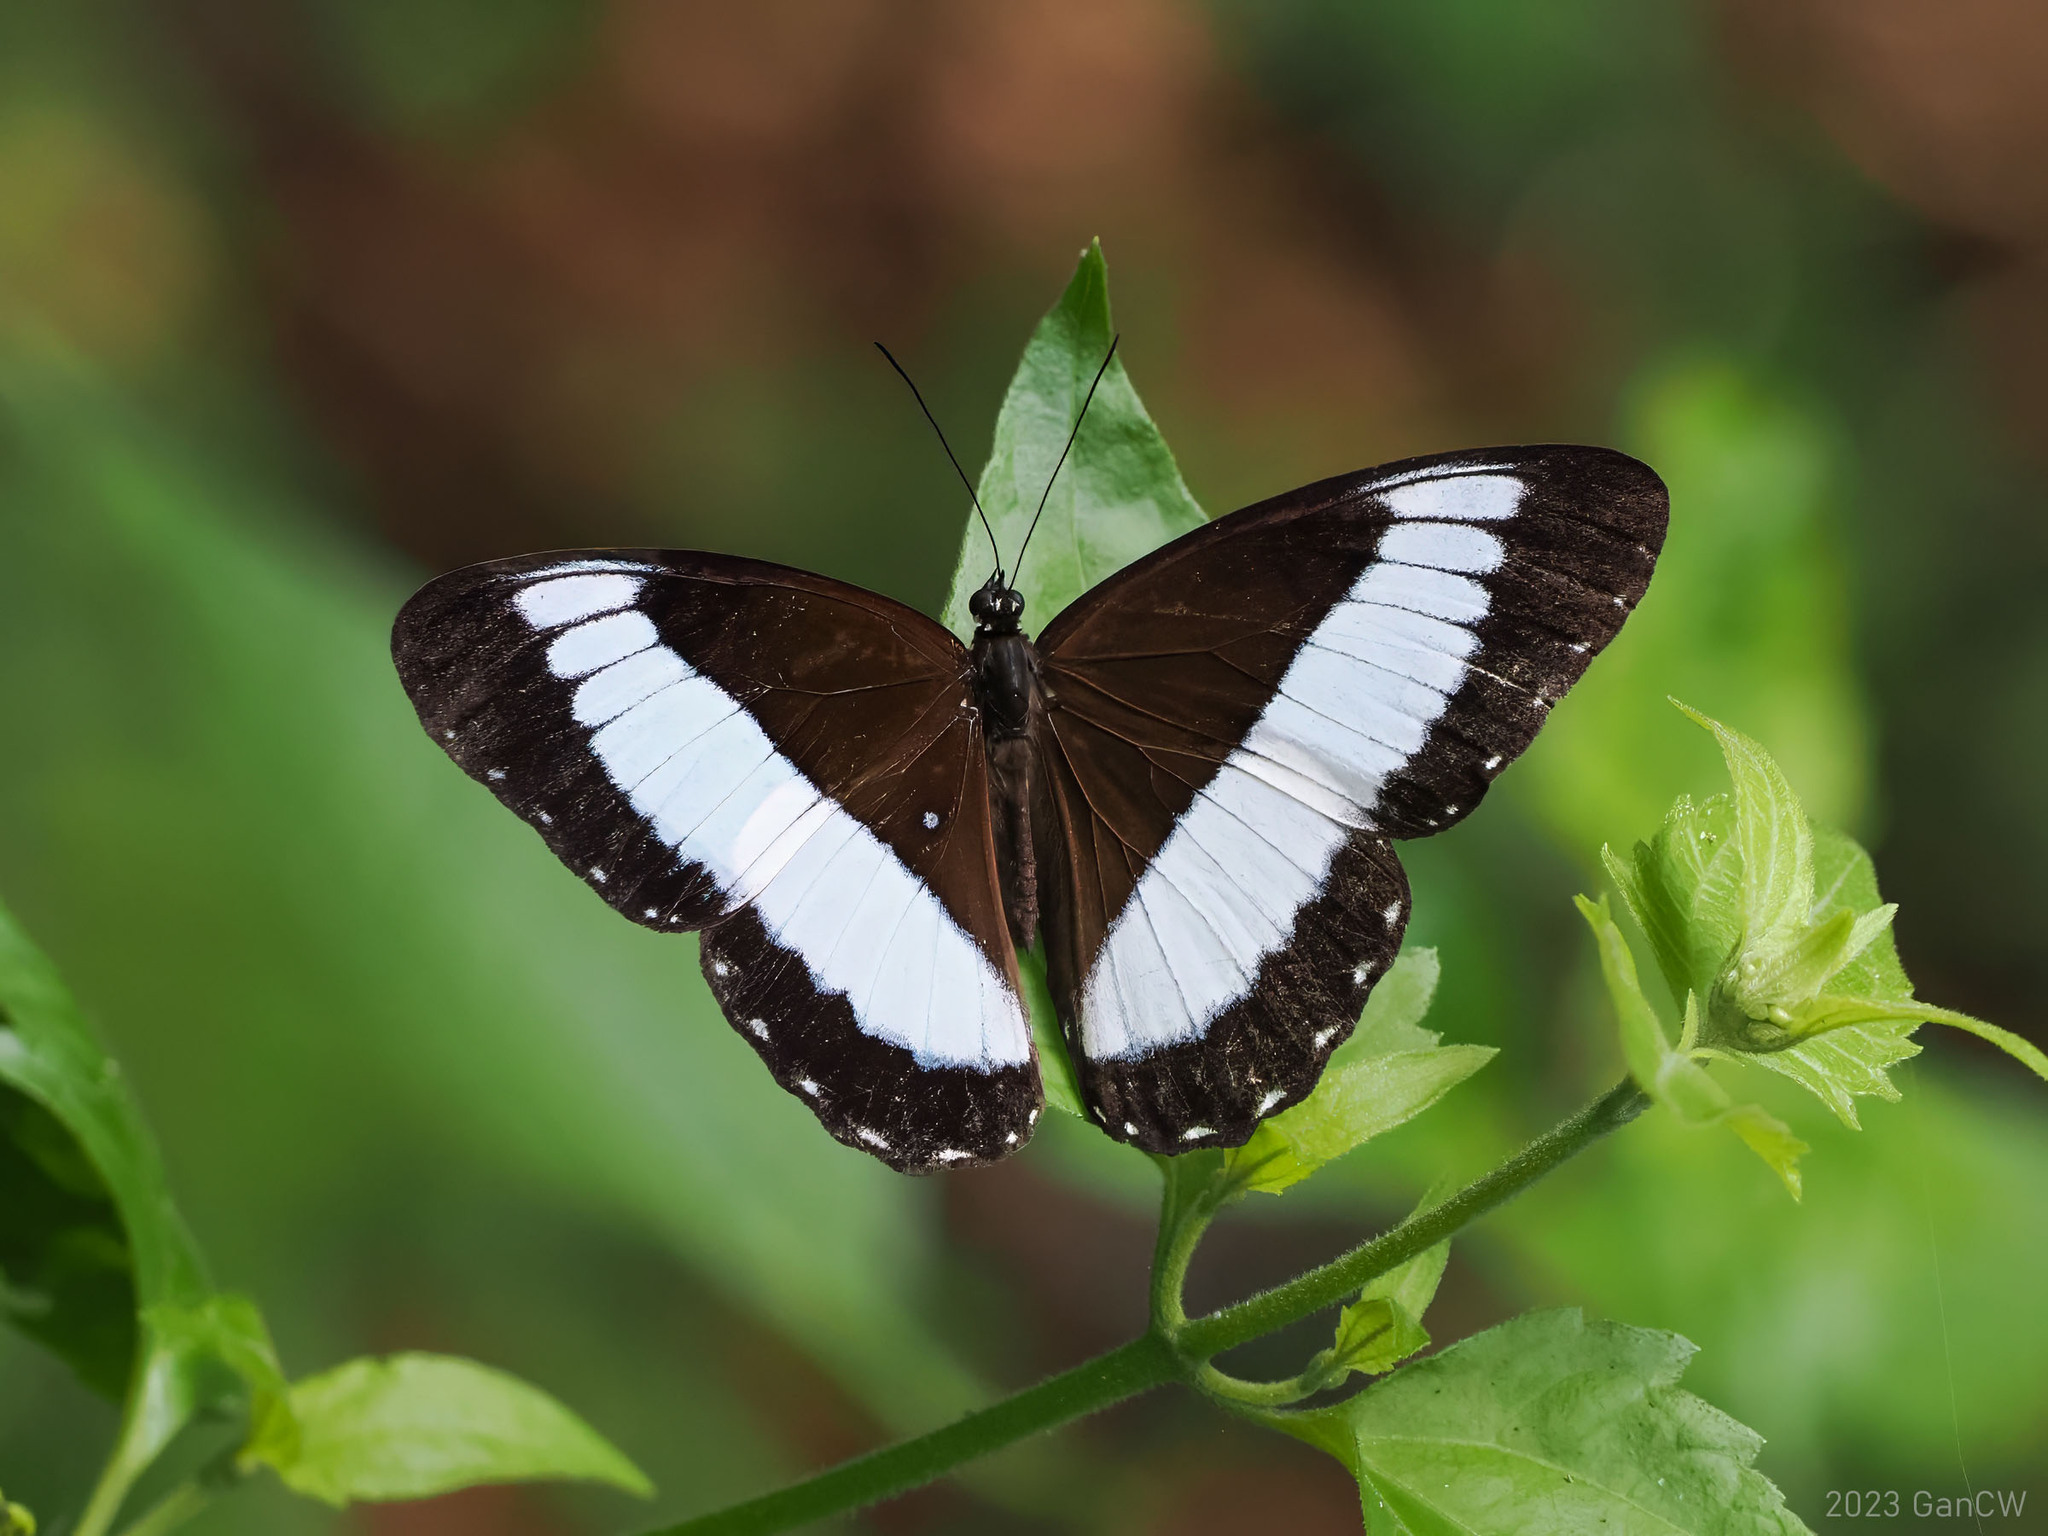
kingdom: Animalia
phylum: Arthropoda
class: Insecta
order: Lepidoptera
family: Nymphalidae
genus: Zethera
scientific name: Zethera pimplea
